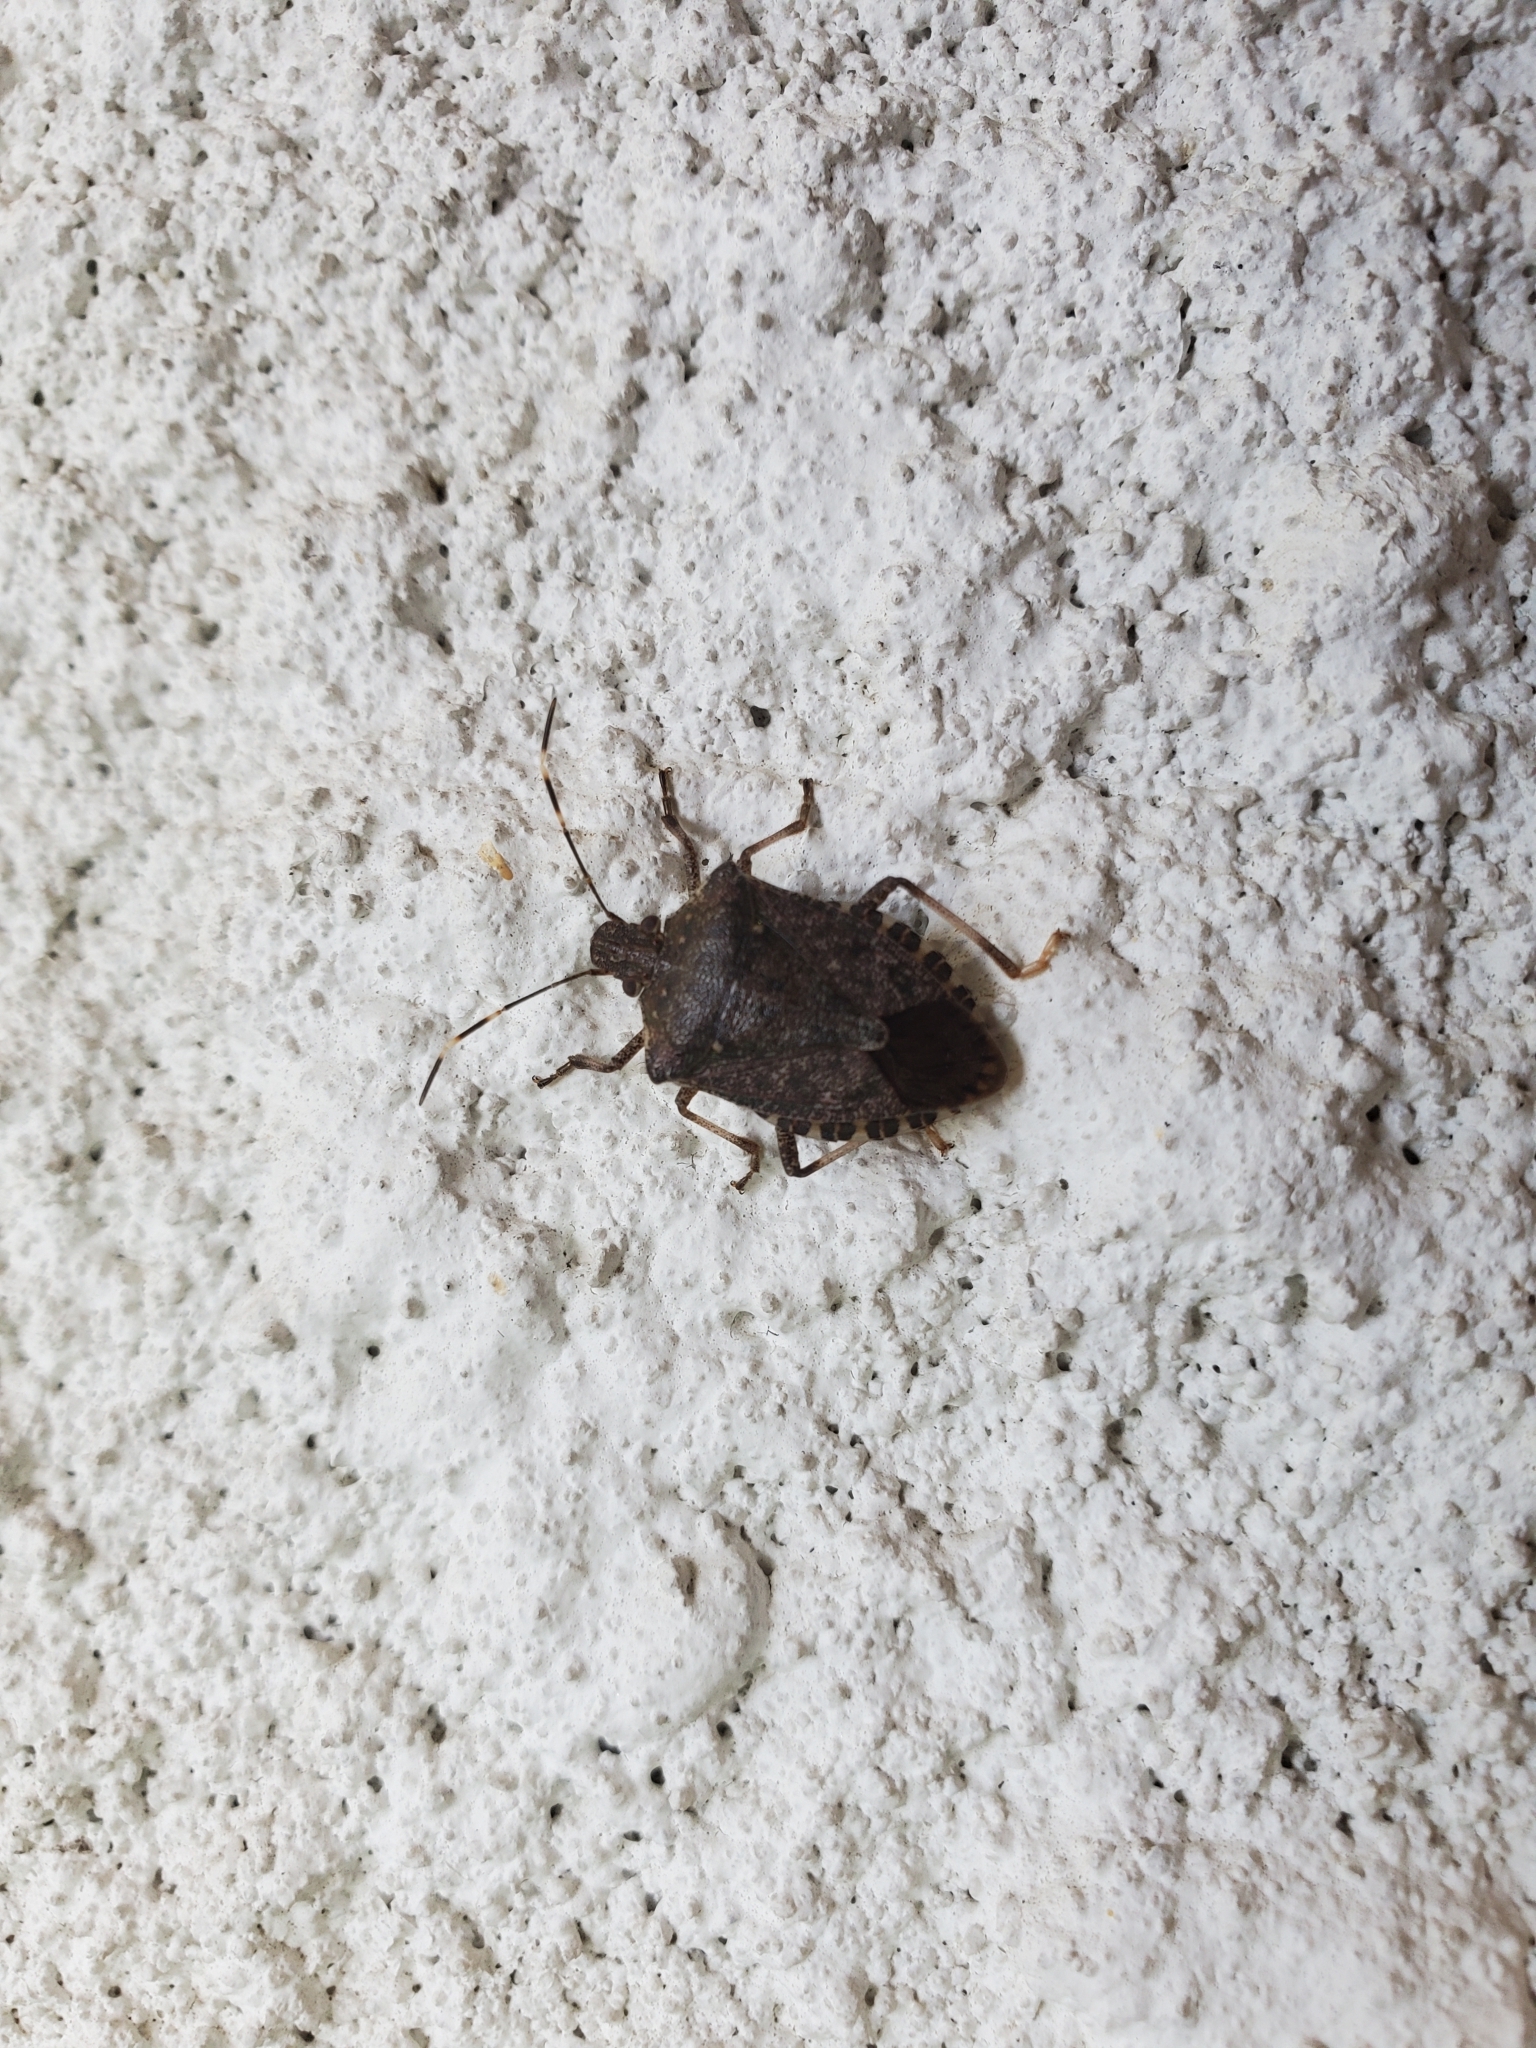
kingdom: Animalia
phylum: Arthropoda
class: Insecta
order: Hemiptera
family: Pentatomidae
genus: Halyomorpha
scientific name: Halyomorpha halys
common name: Brown marmorated stink bug
